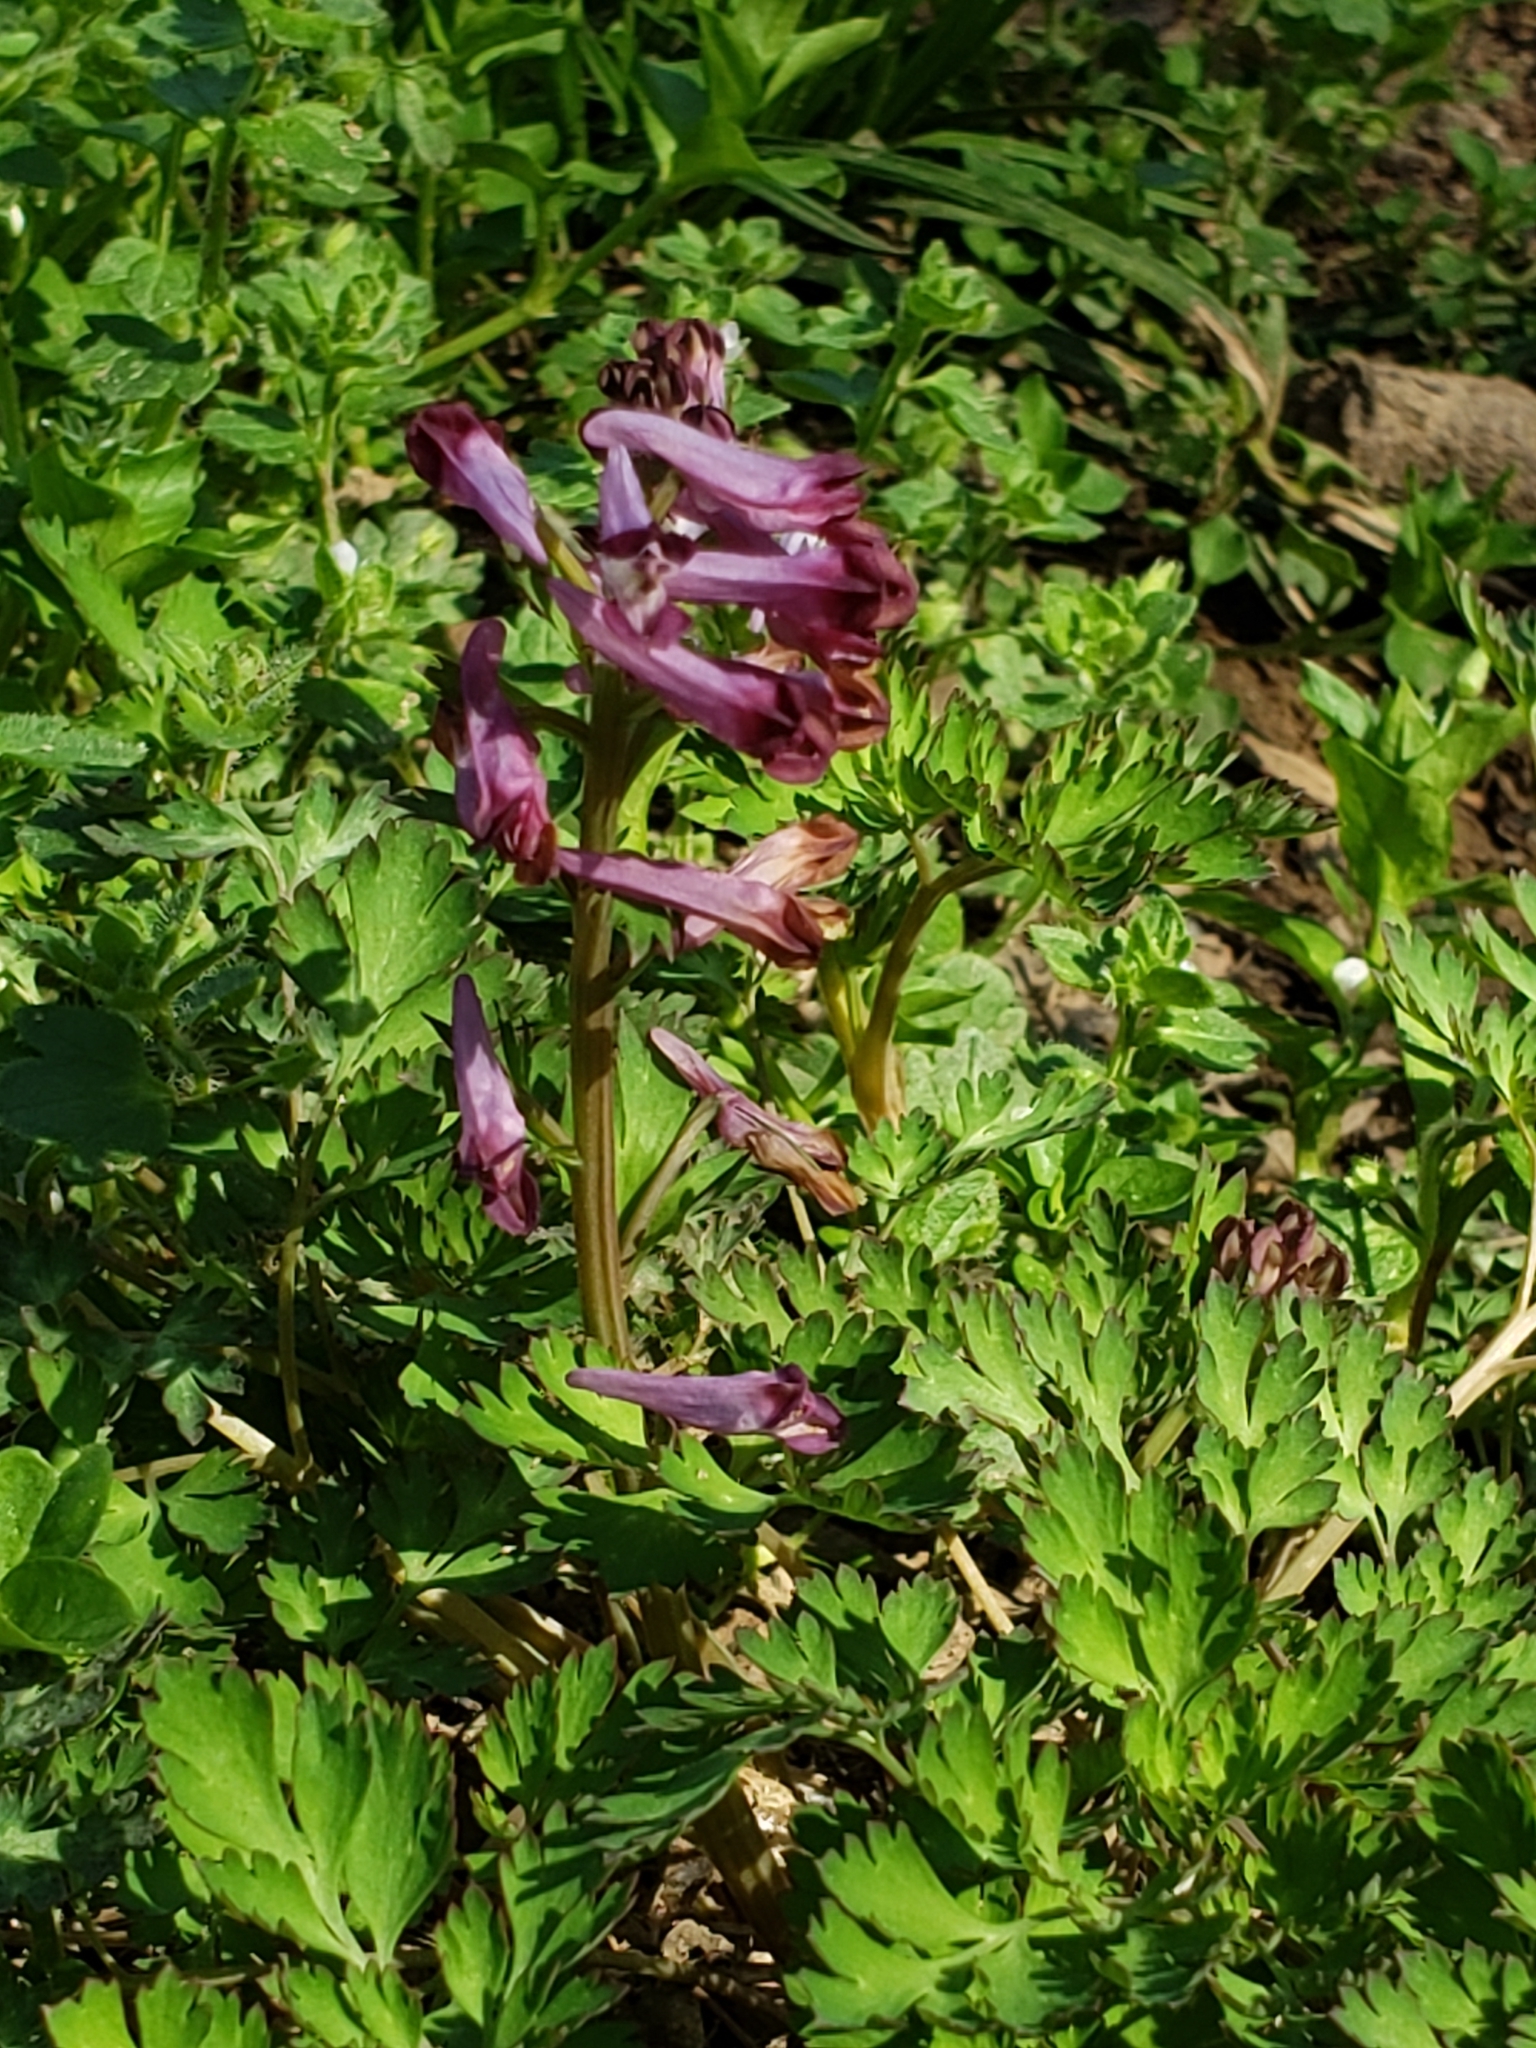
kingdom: Plantae
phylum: Tracheophyta
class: Magnoliopsida
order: Ranunculales
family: Papaveraceae
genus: Corydalis
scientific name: Corydalis incisa
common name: Incised fumewort
